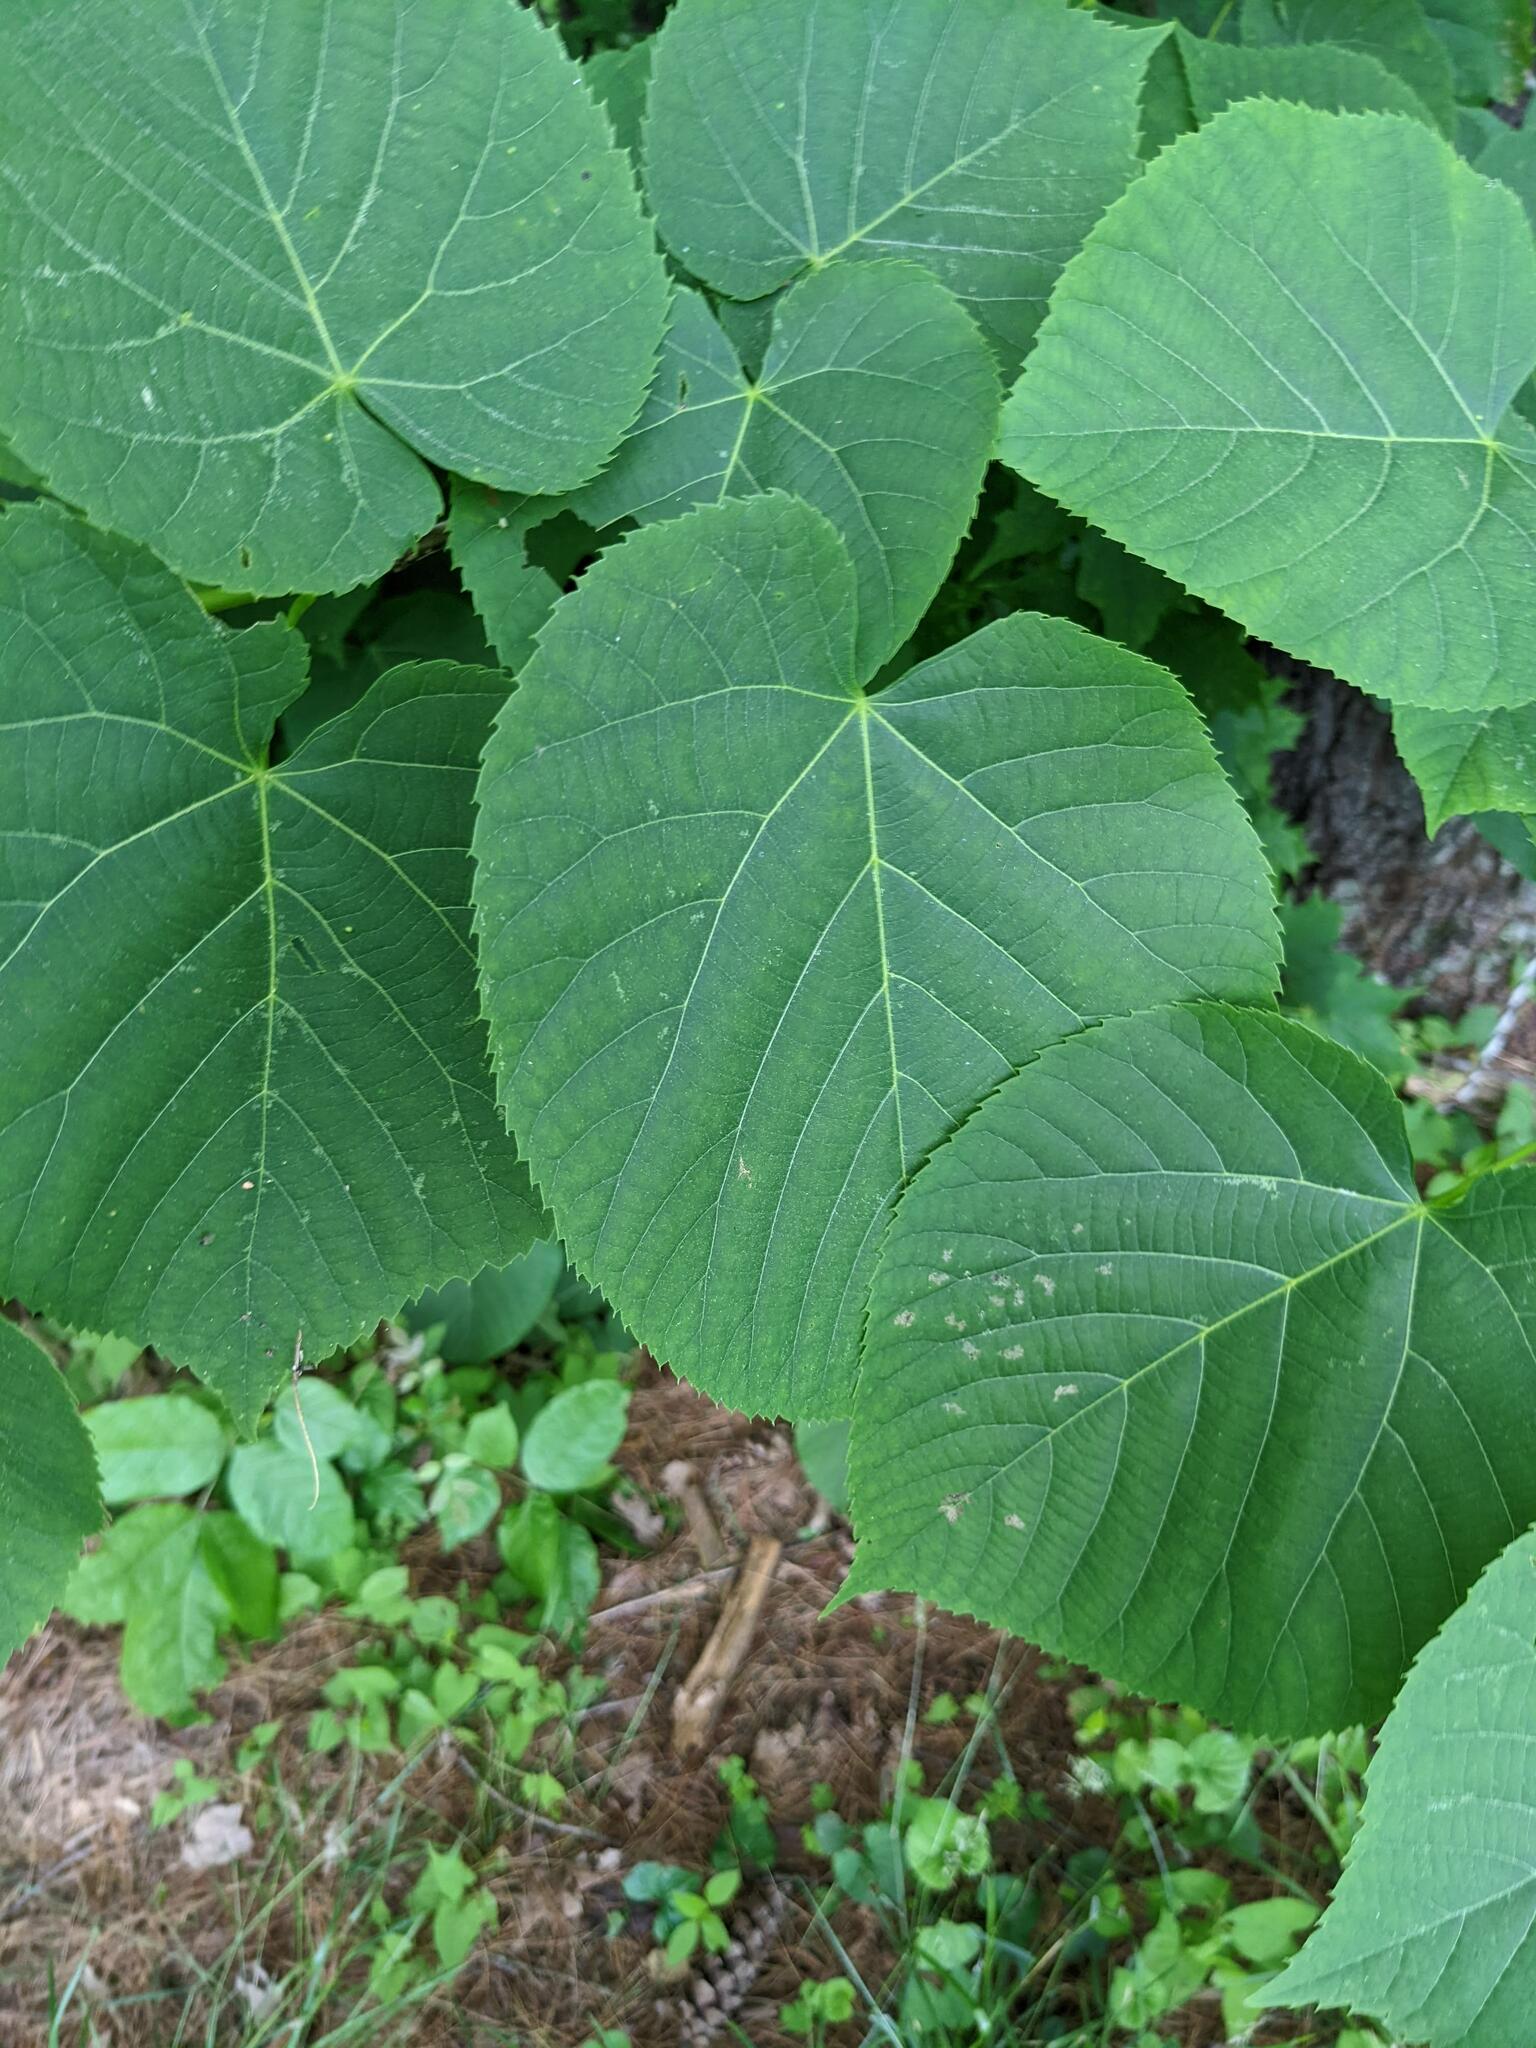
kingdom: Plantae
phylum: Tracheophyta
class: Magnoliopsida
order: Malvales
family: Malvaceae
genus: Tilia
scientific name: Tilia americana
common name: Basswood
